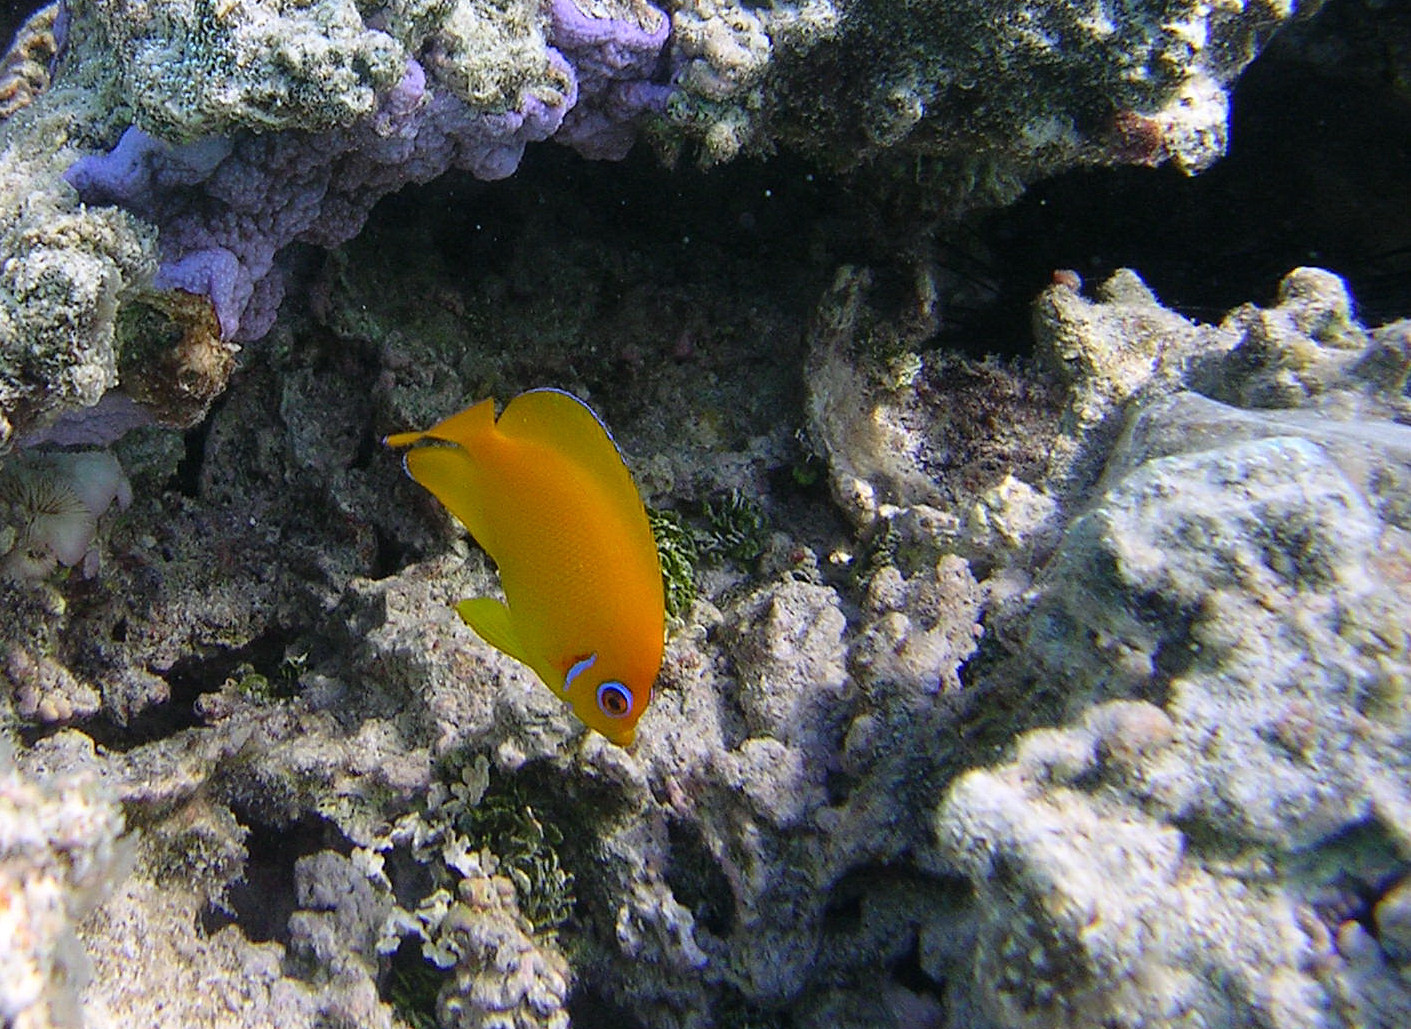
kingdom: Animalia
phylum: Chordata
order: Perciformes
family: Pomacanthidae
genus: Centropyge
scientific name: Centropyge flavissima
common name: Lemonpeel angelfish
